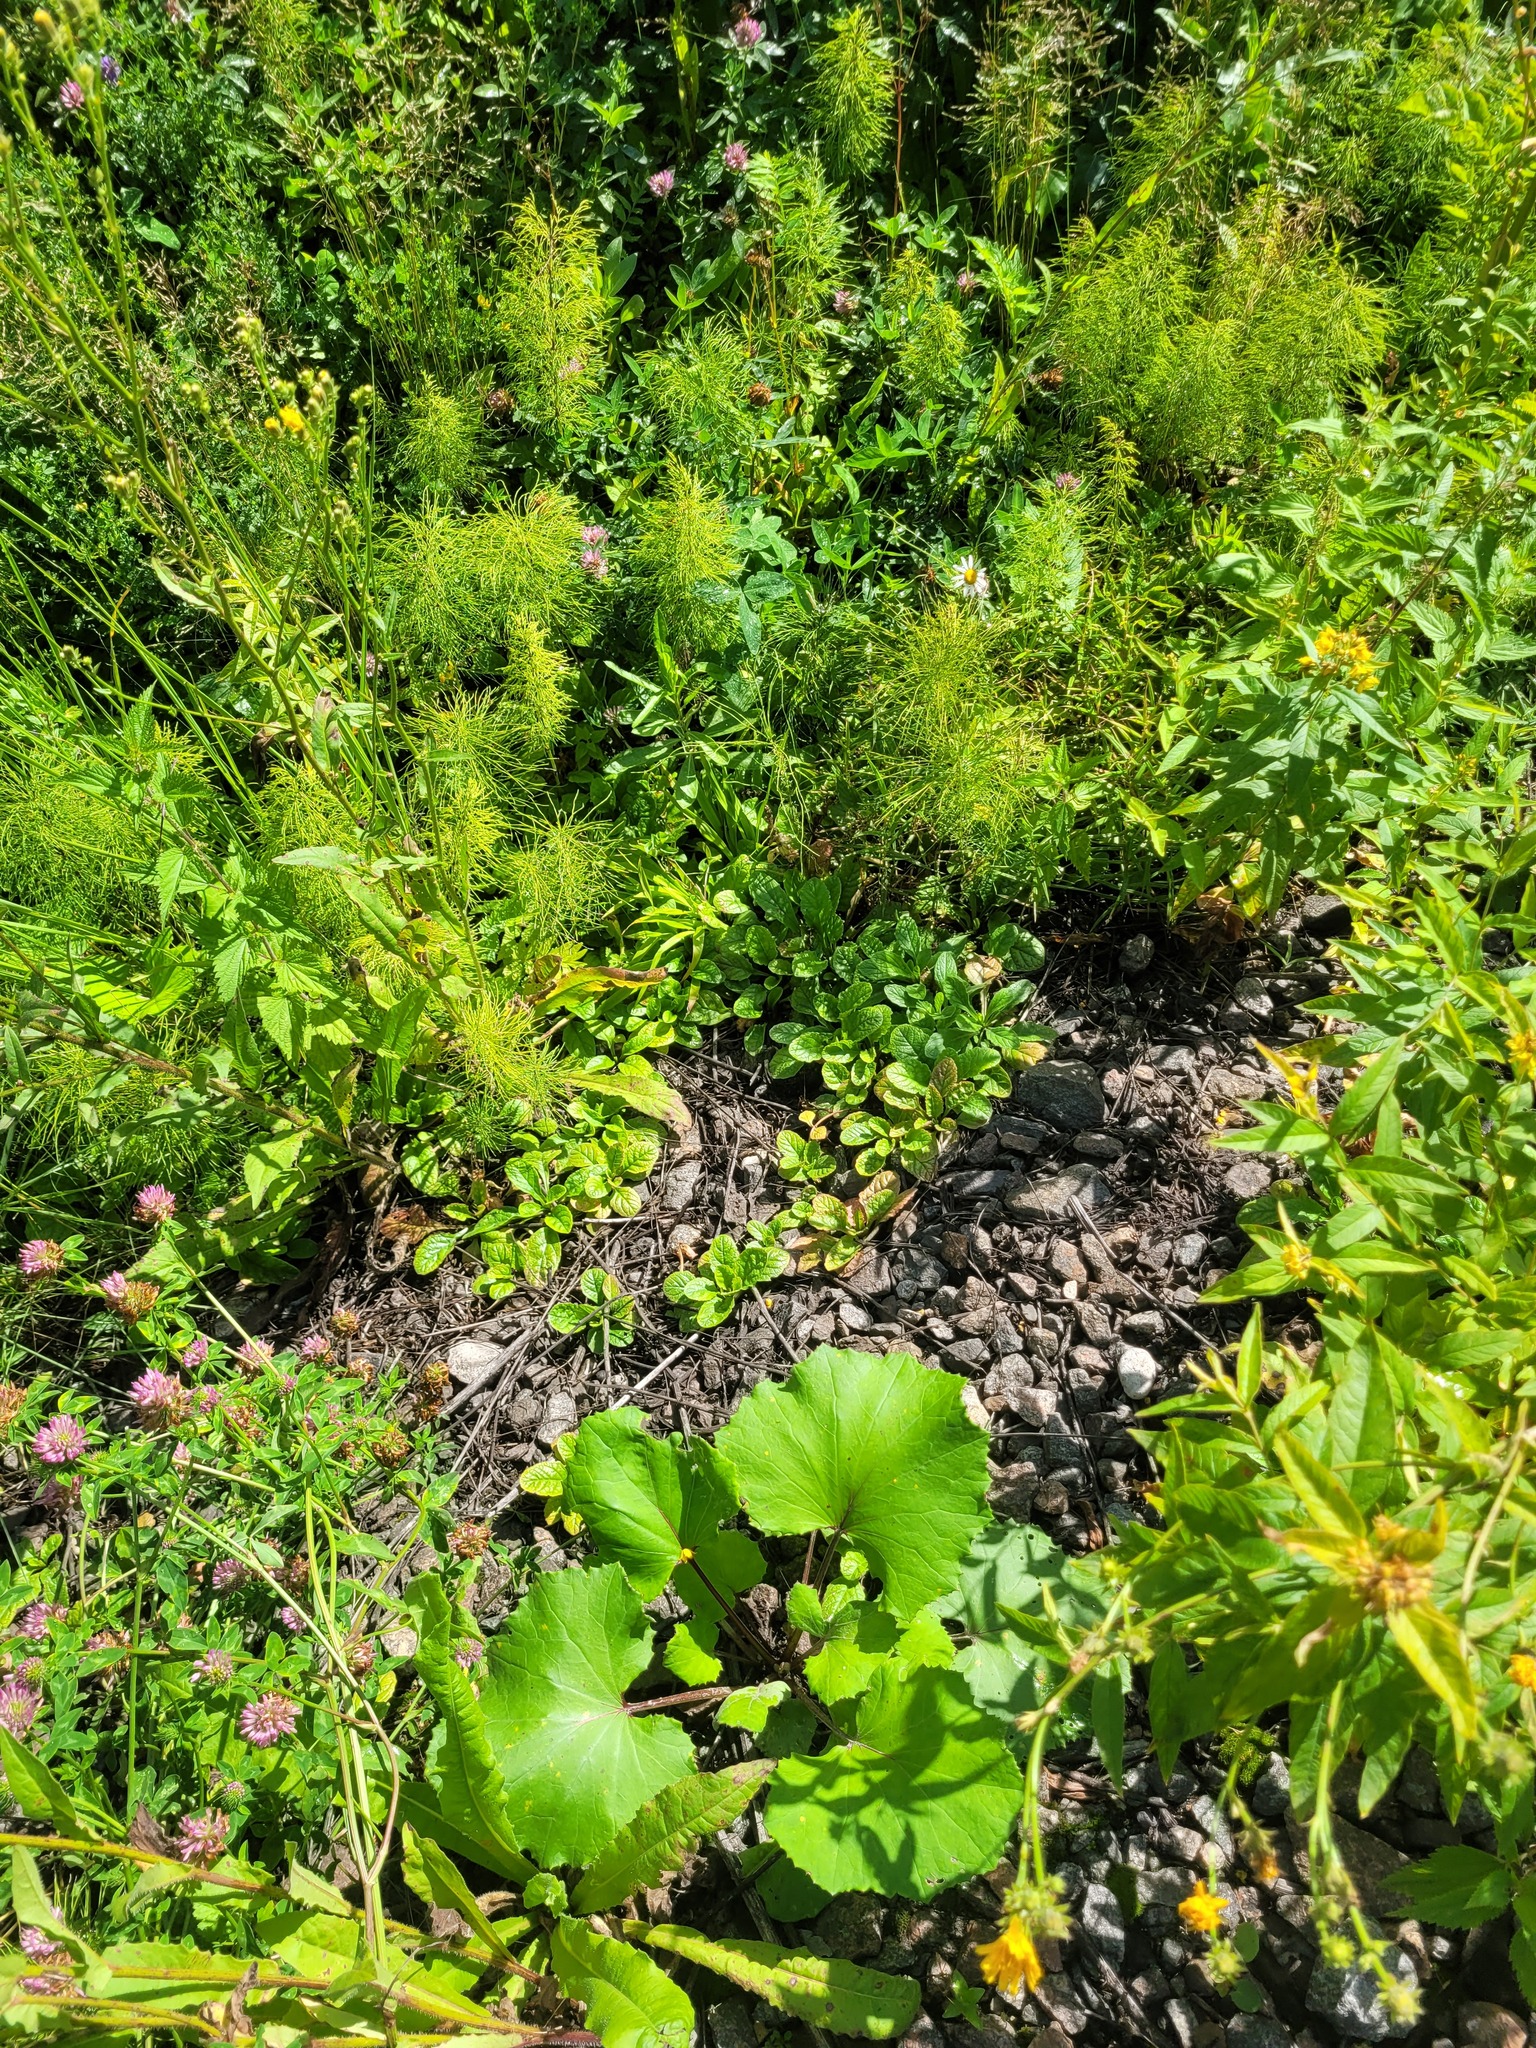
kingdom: Plantae
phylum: Tracheophyta
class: Magnoliopsida
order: Lamiales
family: Lamiaceae
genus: Ajuga
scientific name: Ajuga reptans
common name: Bugle
